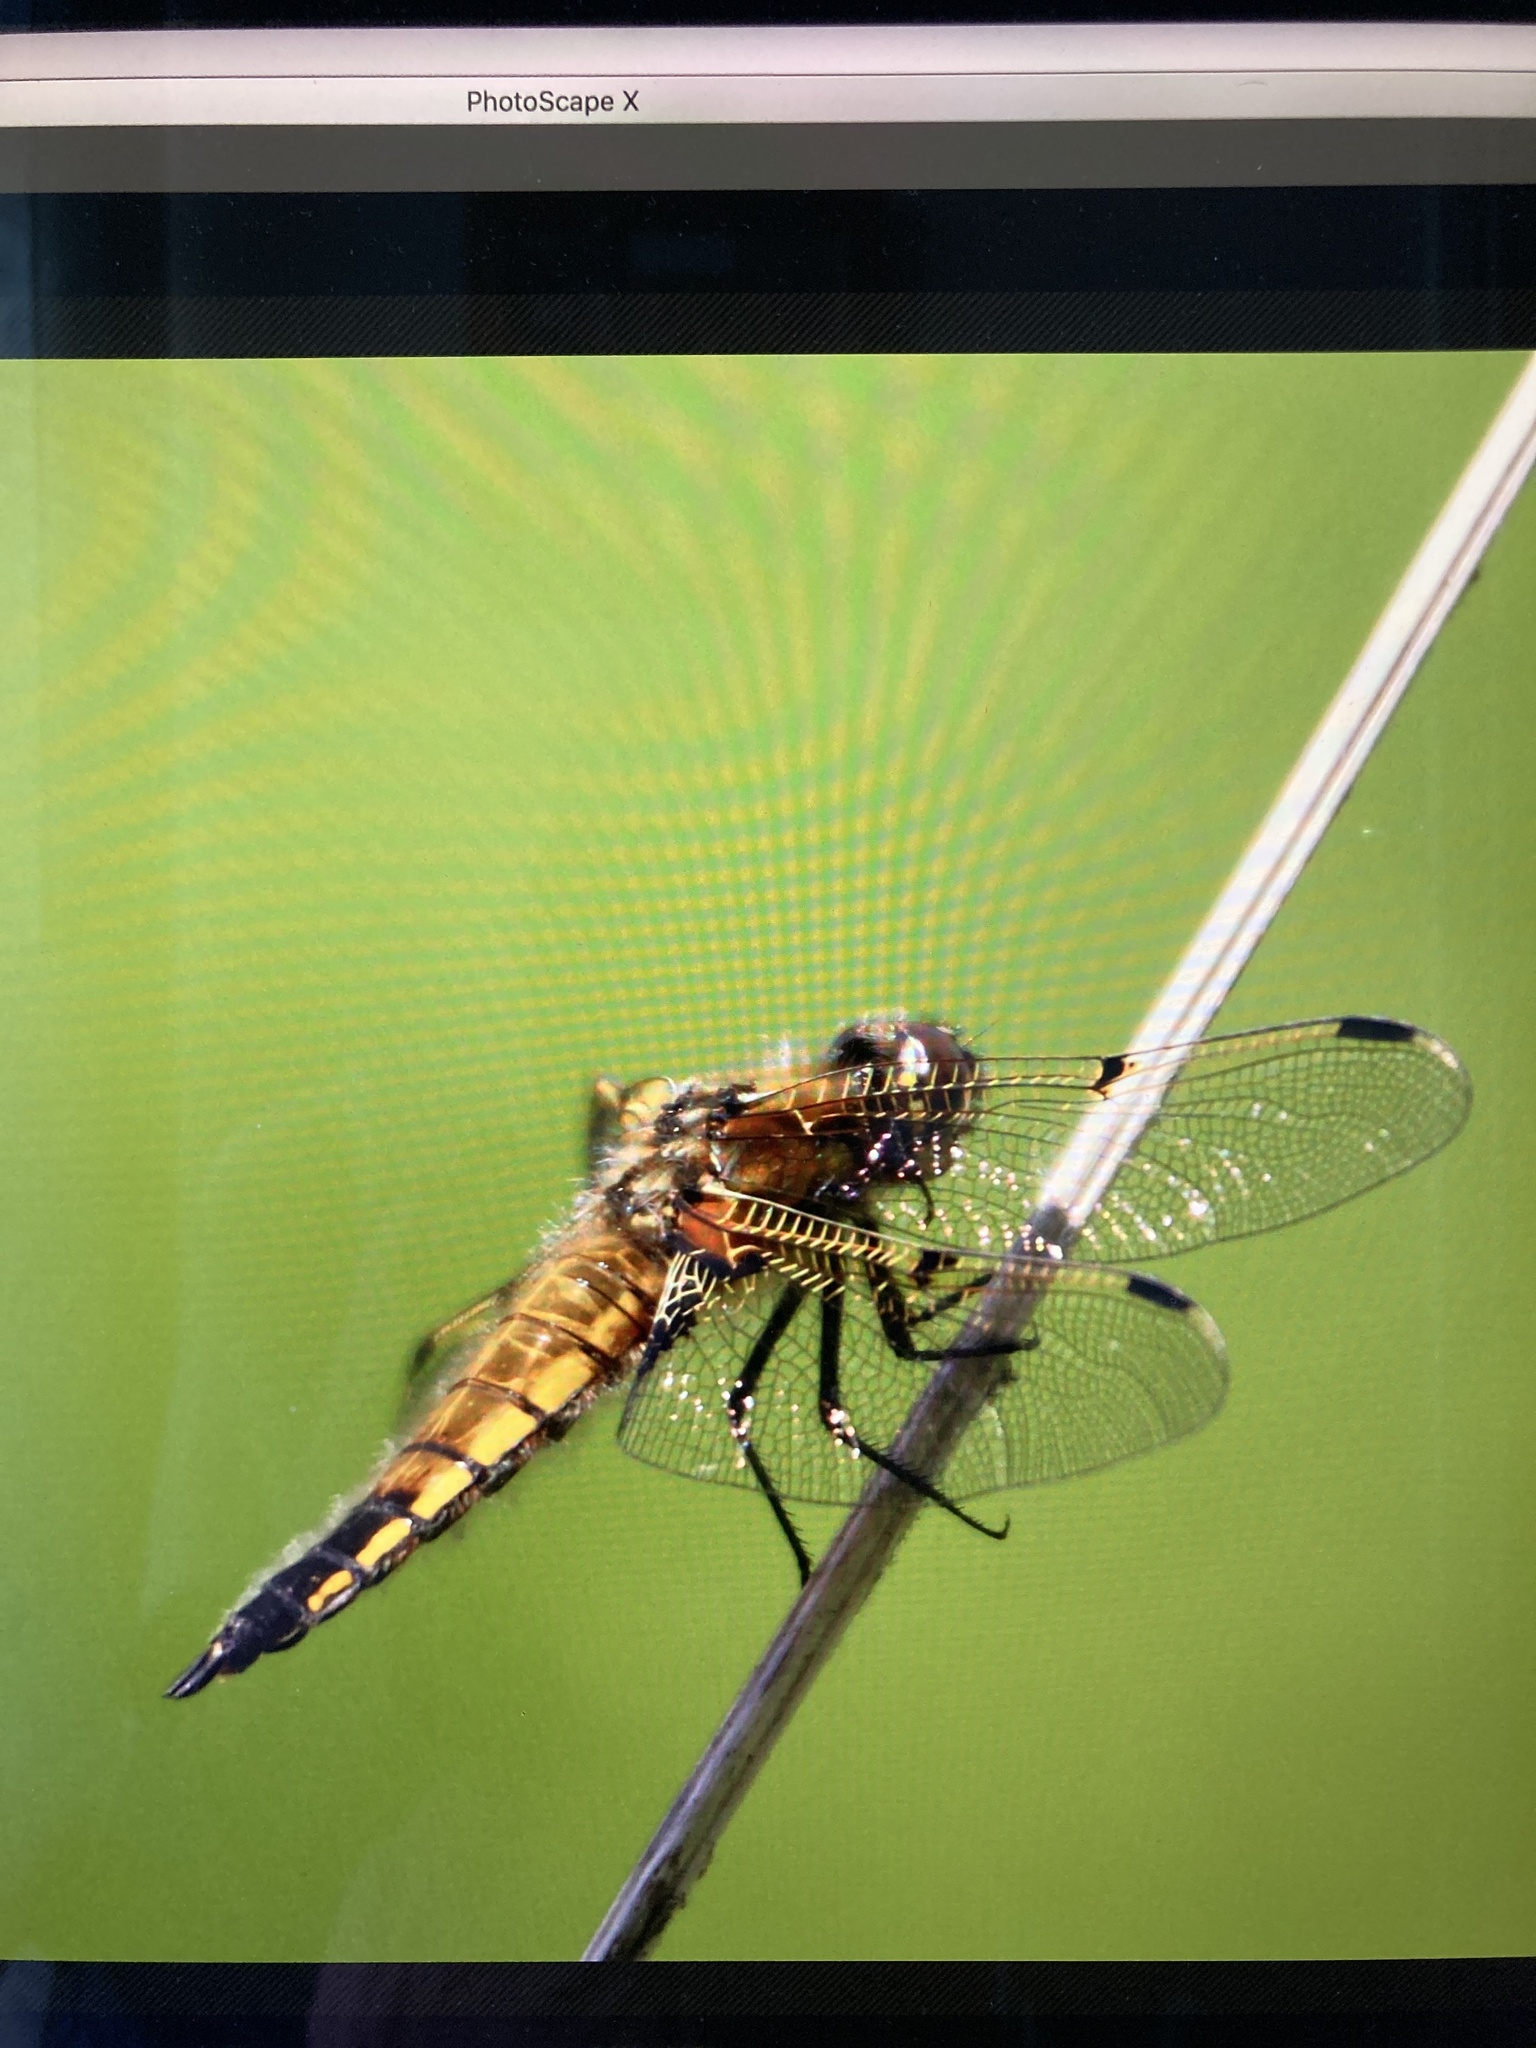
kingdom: Animalia
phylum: Arthropoda
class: Insecta
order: Odonata
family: Libellulidae
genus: Libellula
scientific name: Libellula quadrimaculata
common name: Four-spotted chaser
